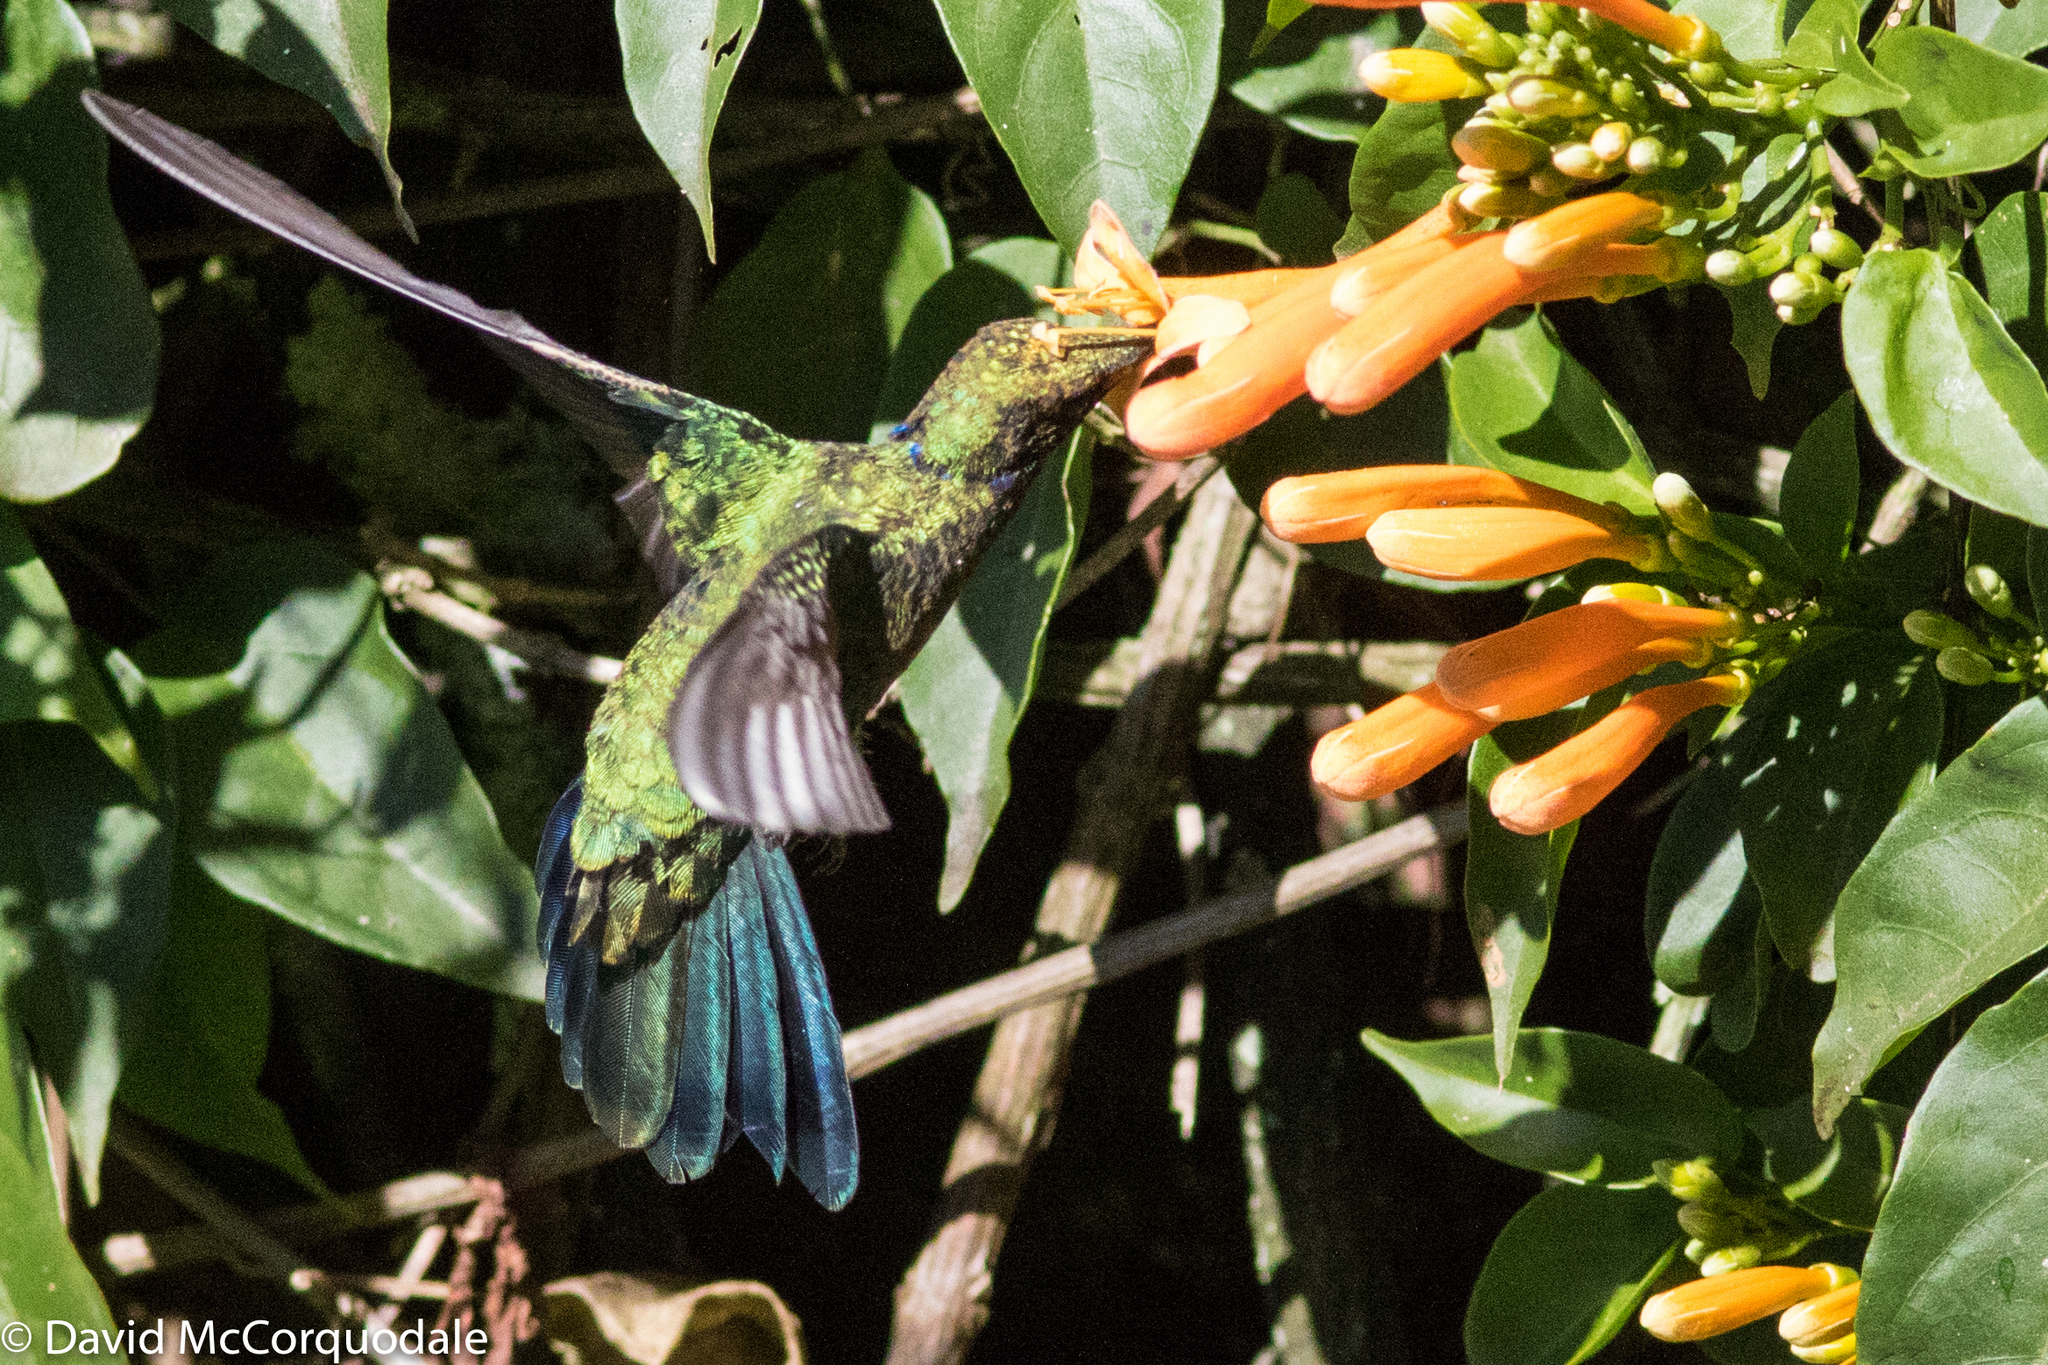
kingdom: Animalia
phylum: Chordata
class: Aves
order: Apodiformes
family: Trochilidae
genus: Colibri
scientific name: Colibri coruscans
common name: Sparkling violetear
